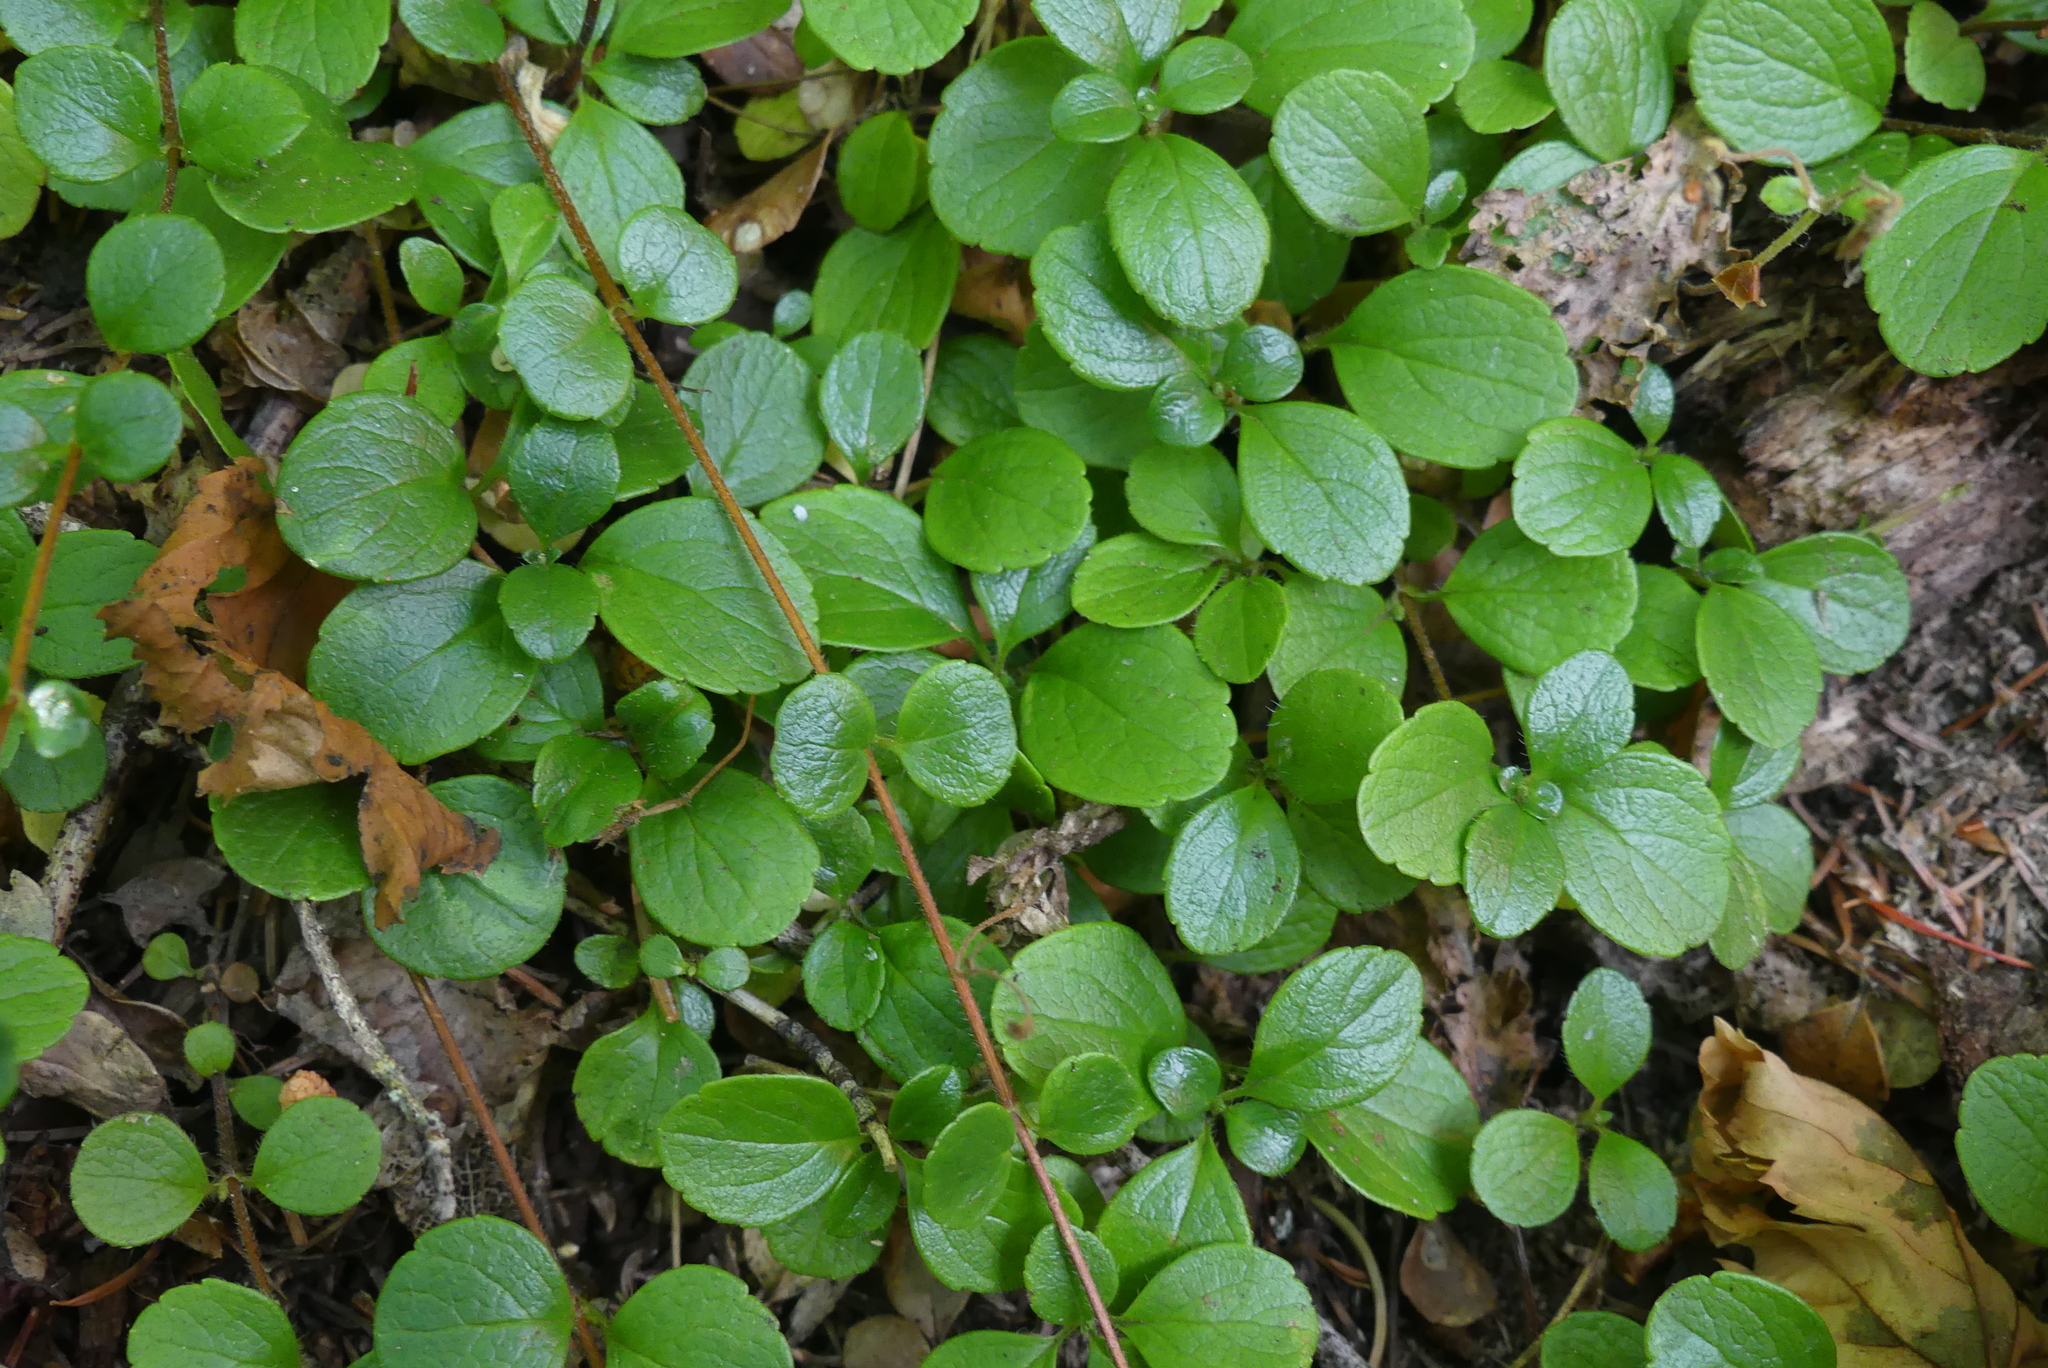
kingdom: Plantae
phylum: Tracheophyta
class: Magnoliopsida
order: Dipsacales
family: Caprifoliaceae
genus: Linnaea
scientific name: Linnaea borealis
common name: Twinflower
